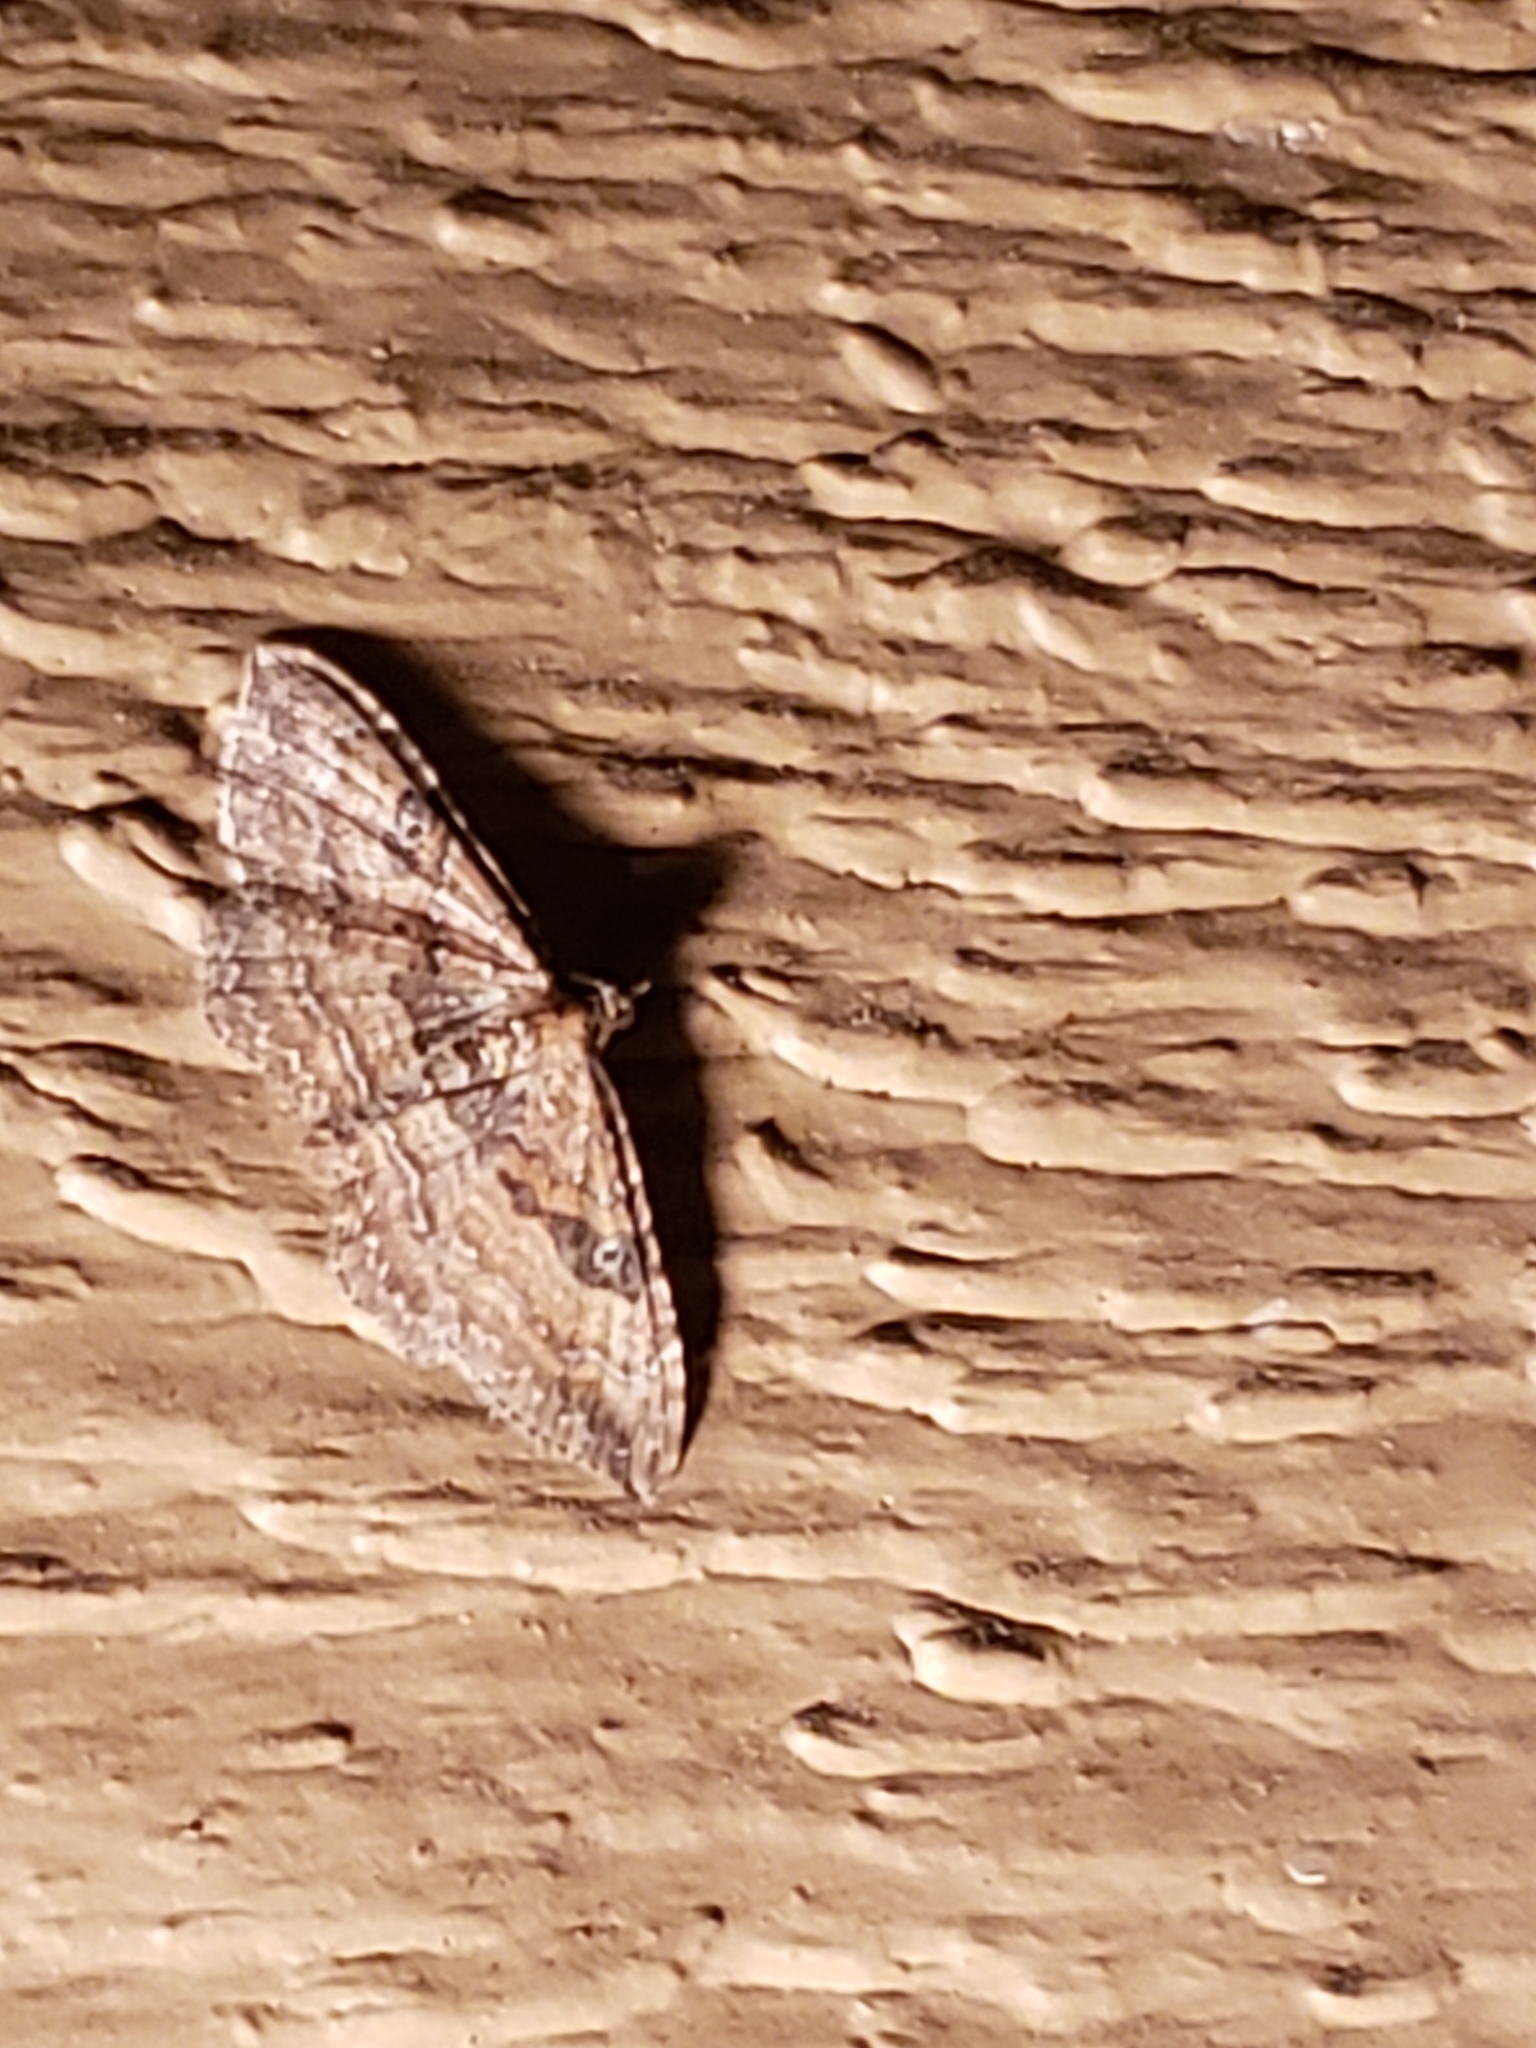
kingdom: Animalia
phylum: Arthropoda
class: Insecta
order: Lepidoptera
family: Geometridae
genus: Orthonama
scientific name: Orthonama obstipata
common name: The gem
